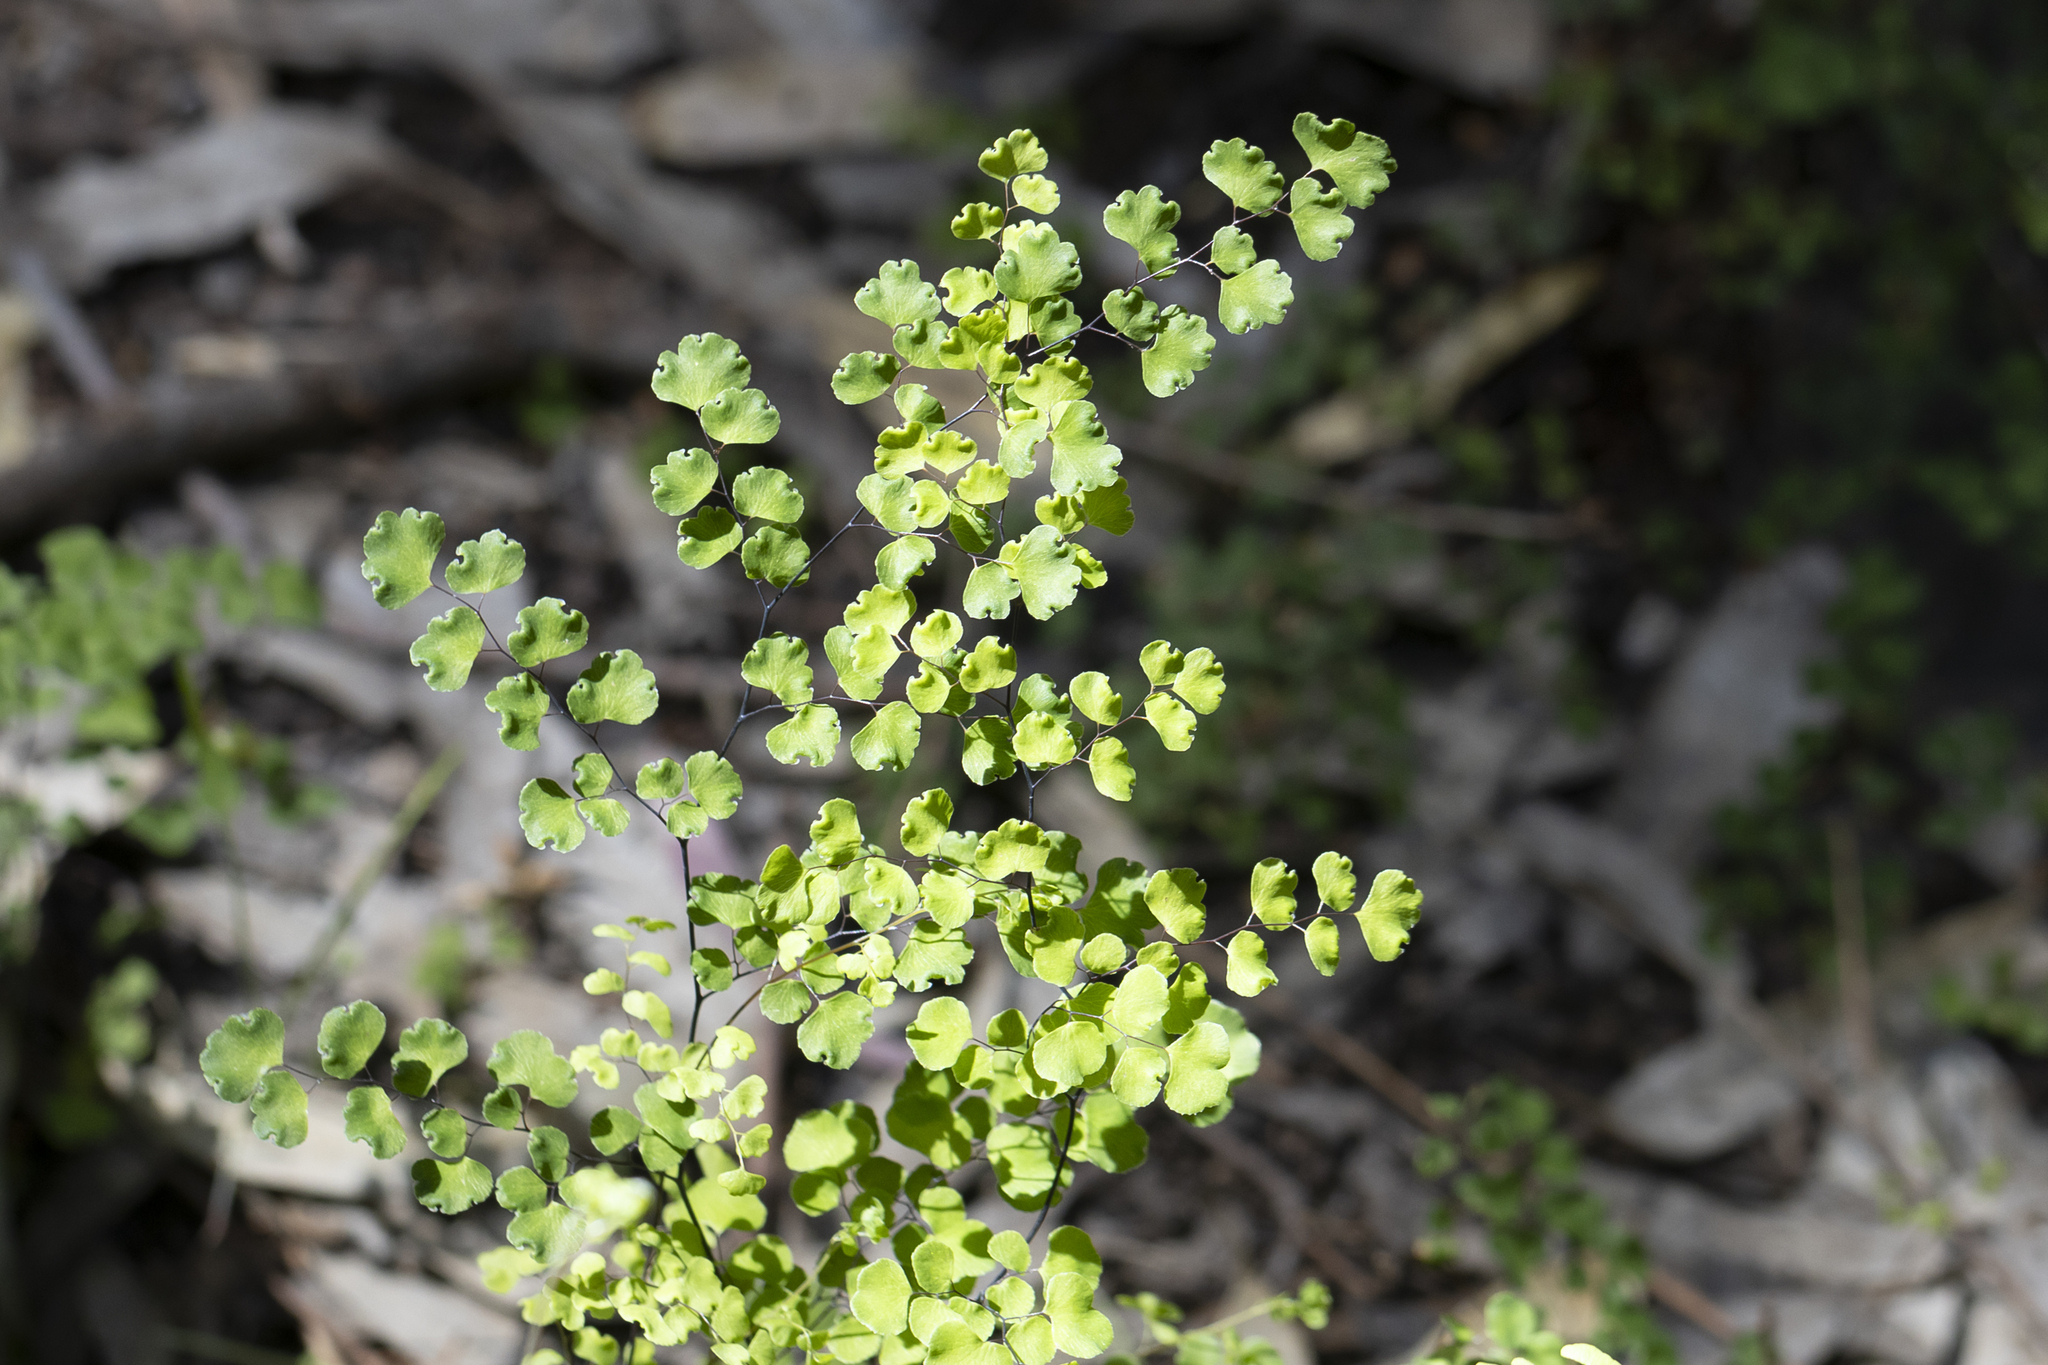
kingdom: Plantae
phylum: Tracheophyta
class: Polypodiopsida
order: Polypodiales
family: Pteridaceae
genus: Adiantum
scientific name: Adiantum aethiopicum
